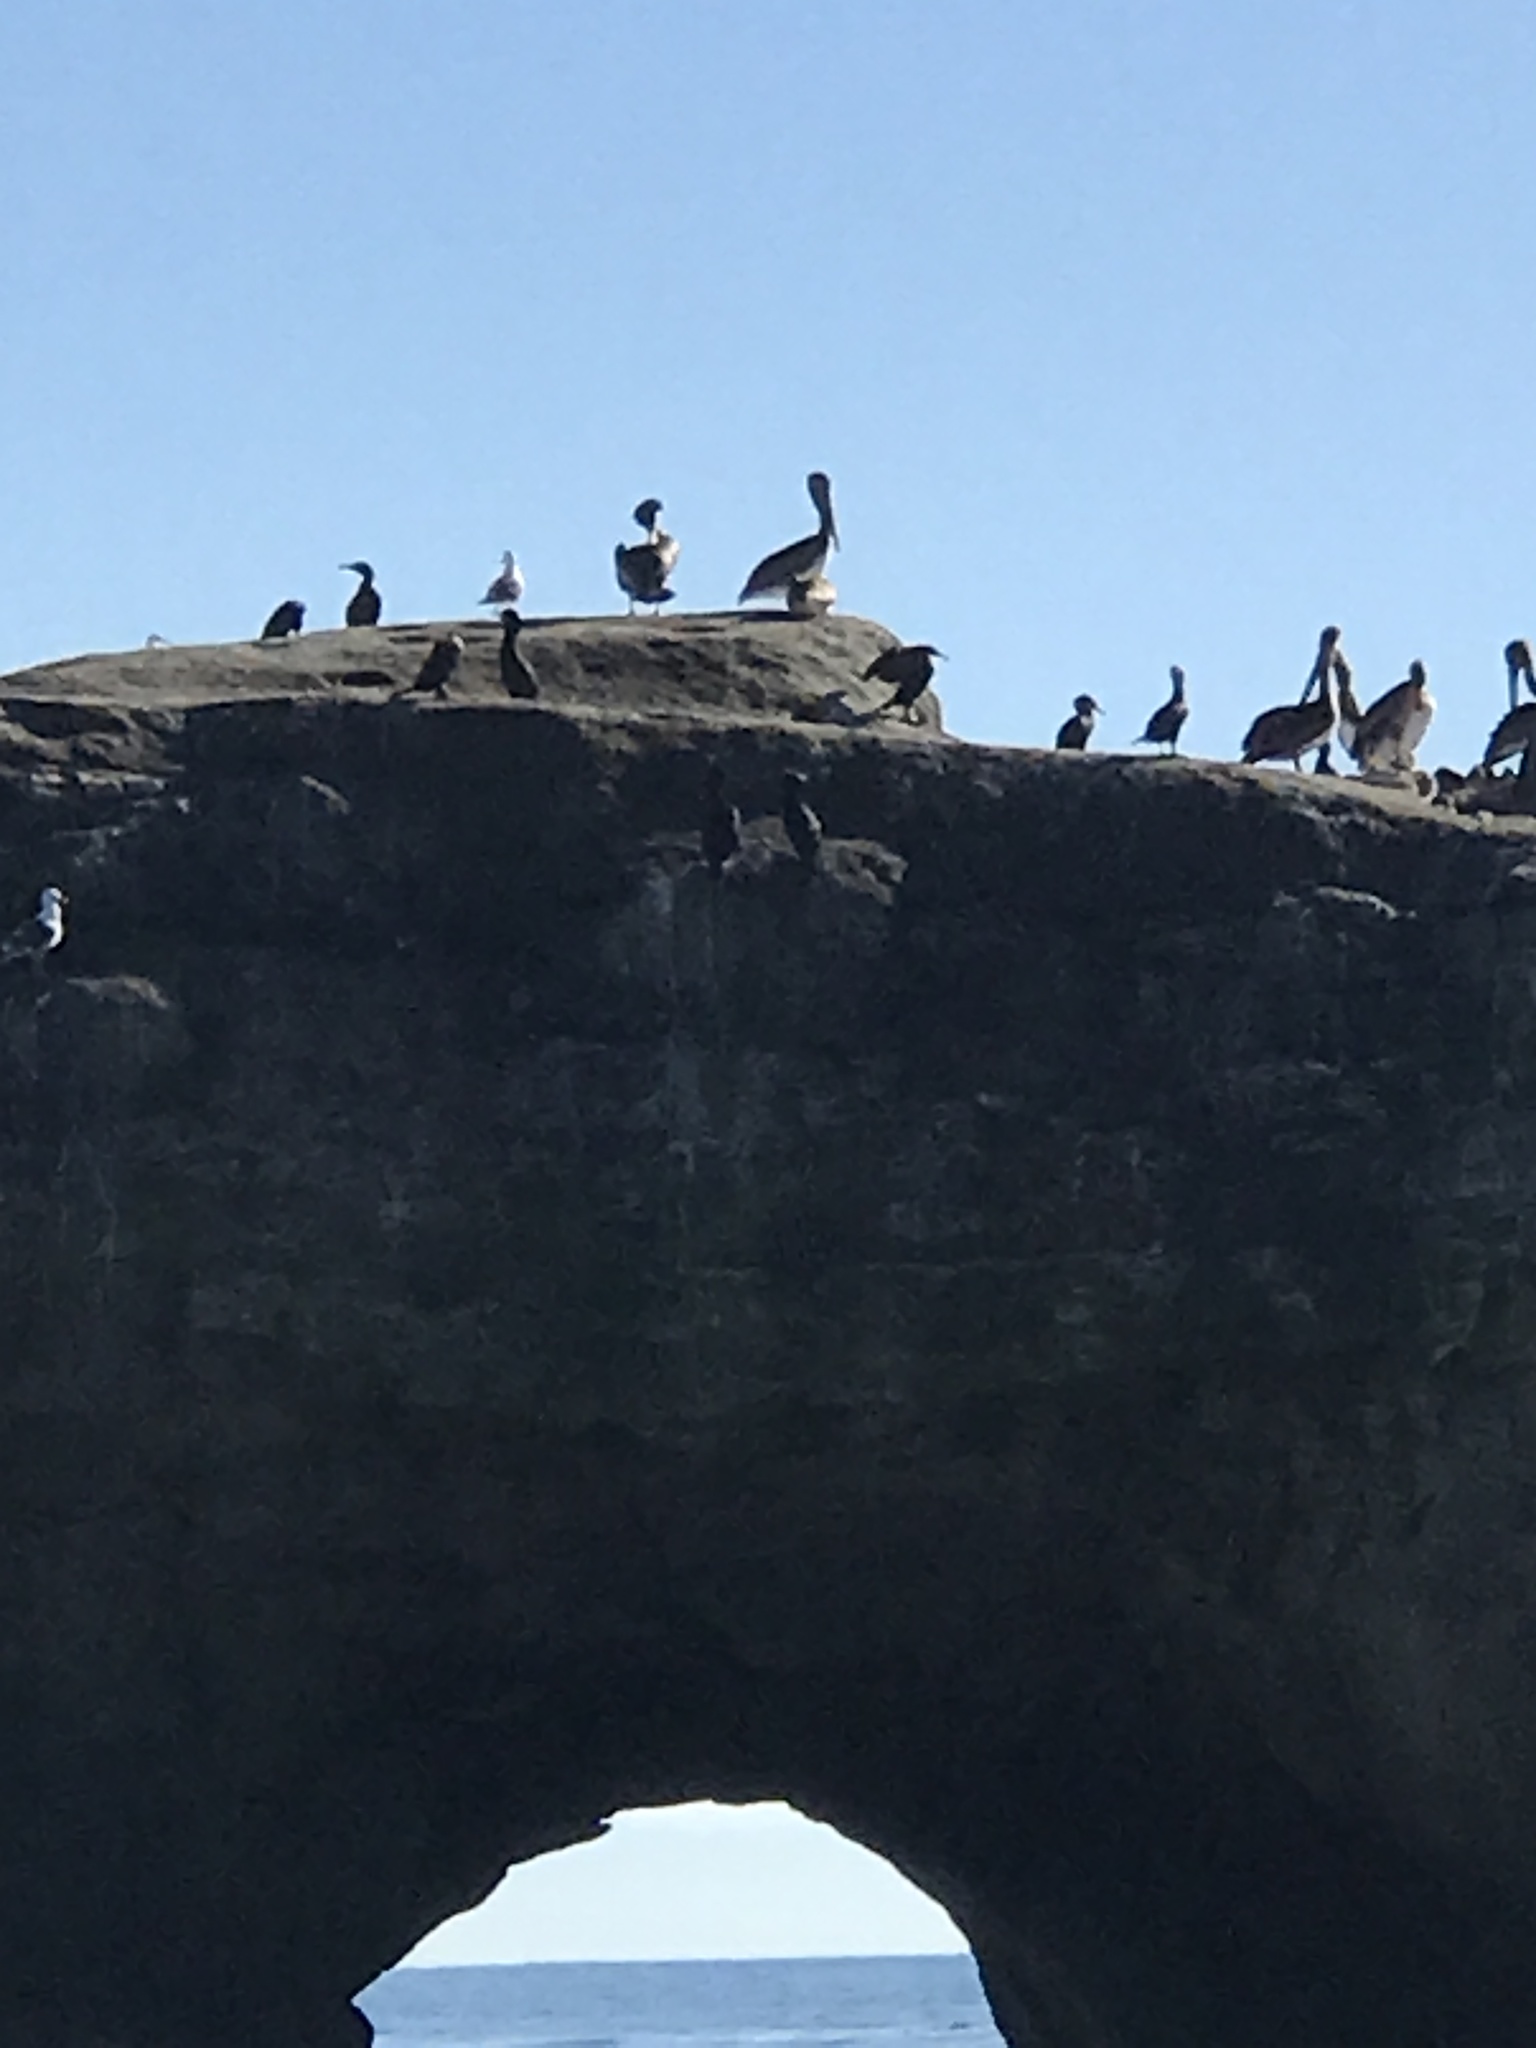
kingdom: Animalia
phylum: Chordata
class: Aves
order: Pelecaniformes
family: Pelecanidae
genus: Pelecanus
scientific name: Pelecanus occidentalis
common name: Brown pelican
